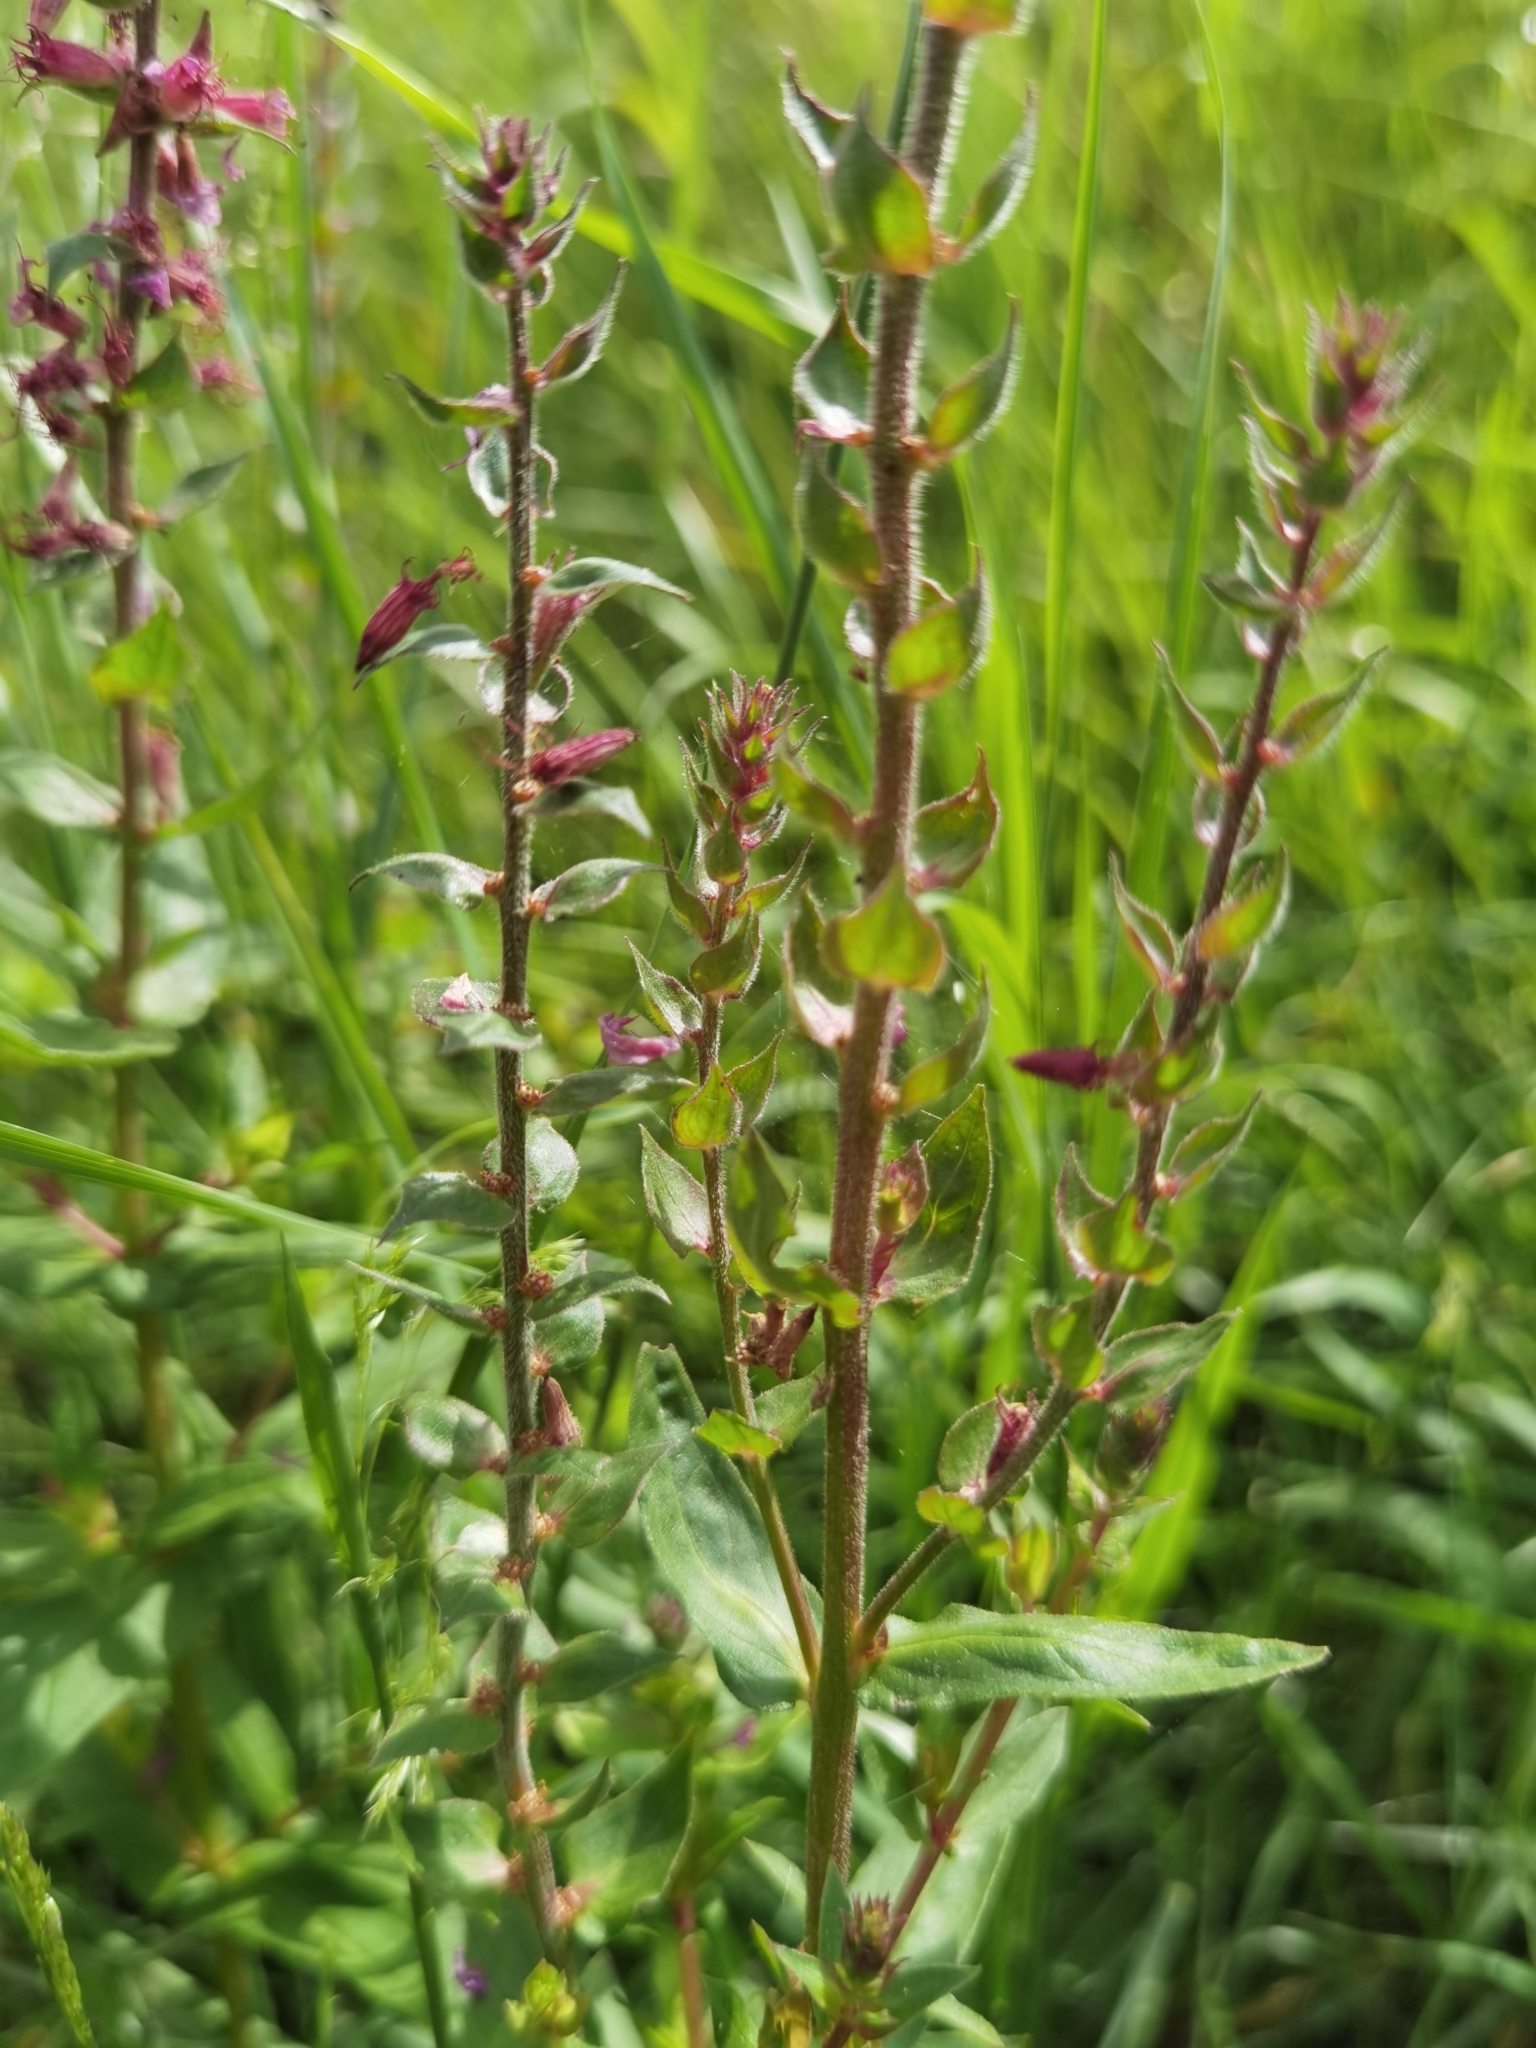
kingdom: Plantae
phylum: Tracheophyta
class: Magnoliopsida
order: Myrtales
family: Lythraceae
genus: Lythrum
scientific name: Lythrum salicaria
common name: Purple loosestrife
